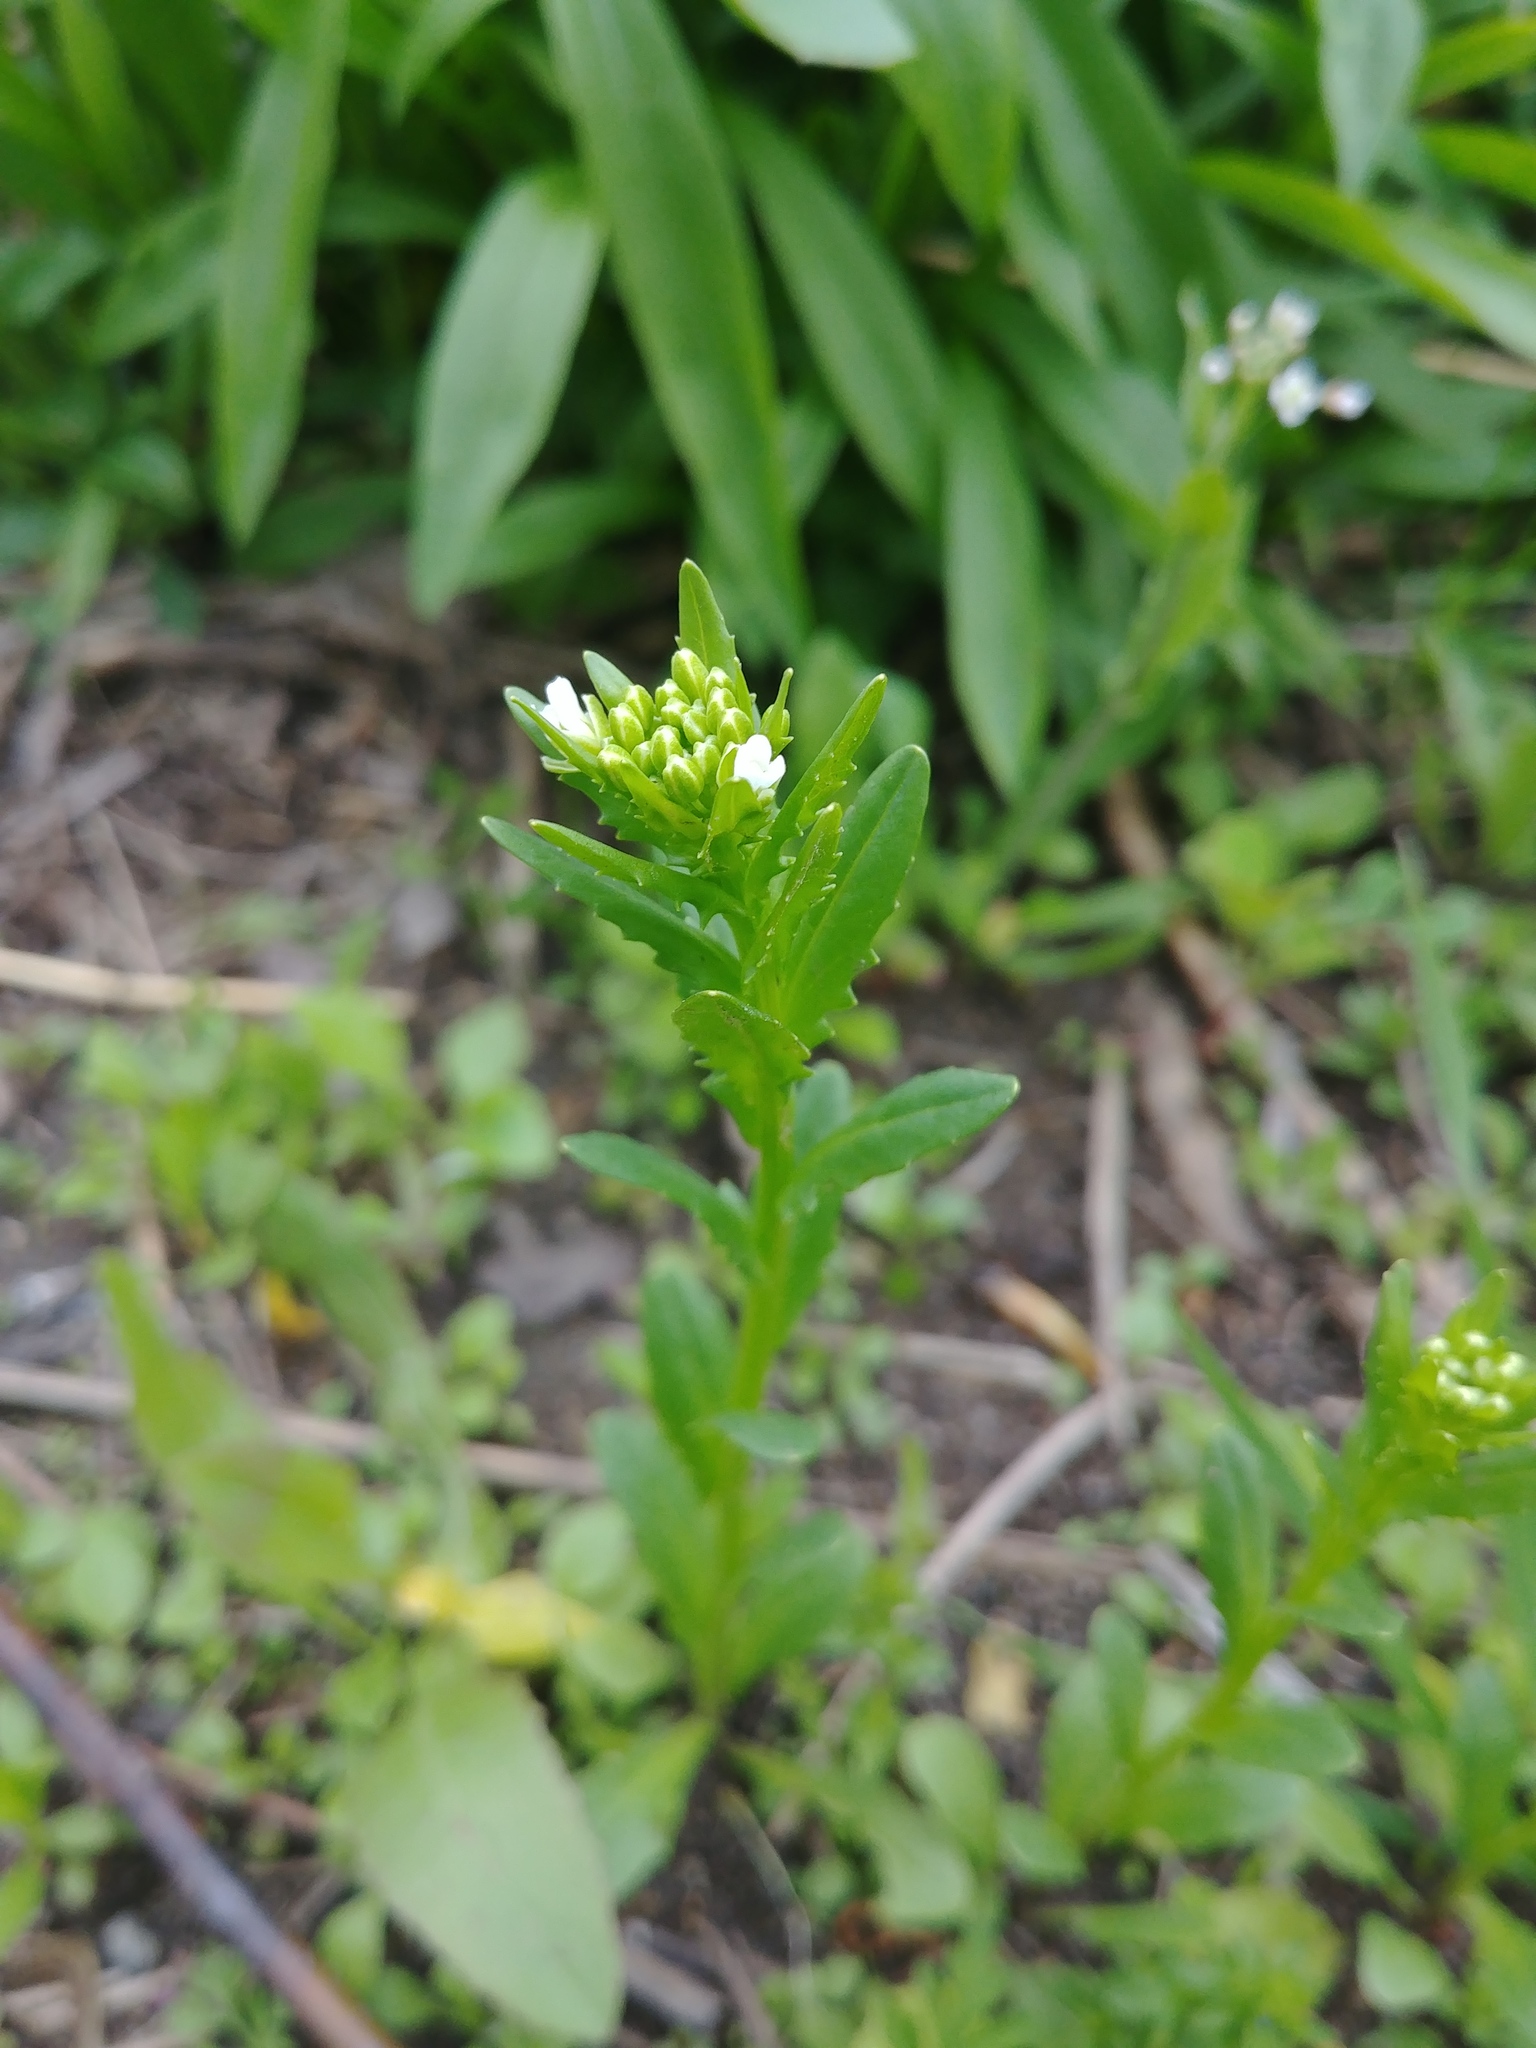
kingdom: Plantae
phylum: Tracheophyta
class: Magnoliopsida
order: Brassicales
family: Brassicaceae
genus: Thlaspi
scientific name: Thlaspi arvense
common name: Field pennycress
